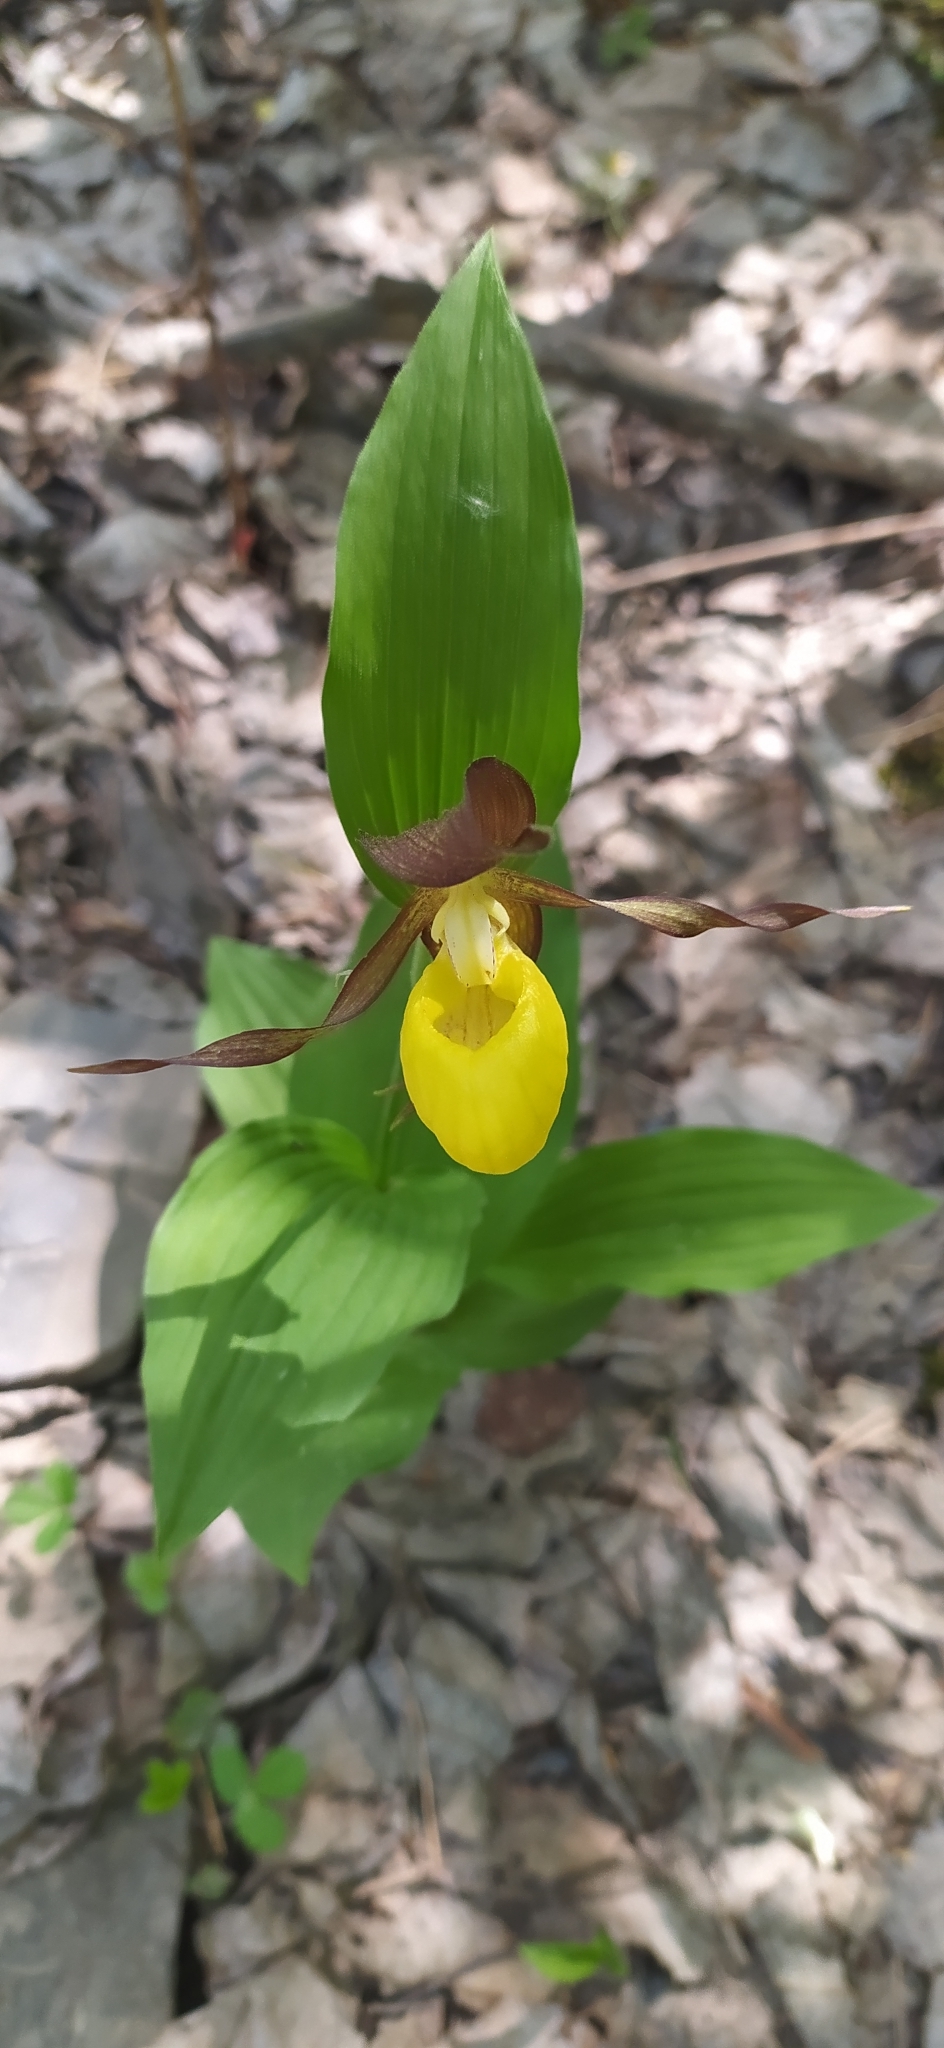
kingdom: Plantae
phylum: Tracheophyta
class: Liliopsida
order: Asparagales
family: Orchidaceae
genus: Cypripedium
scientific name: Cypripedium calceolus
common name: Lady's-slipper
